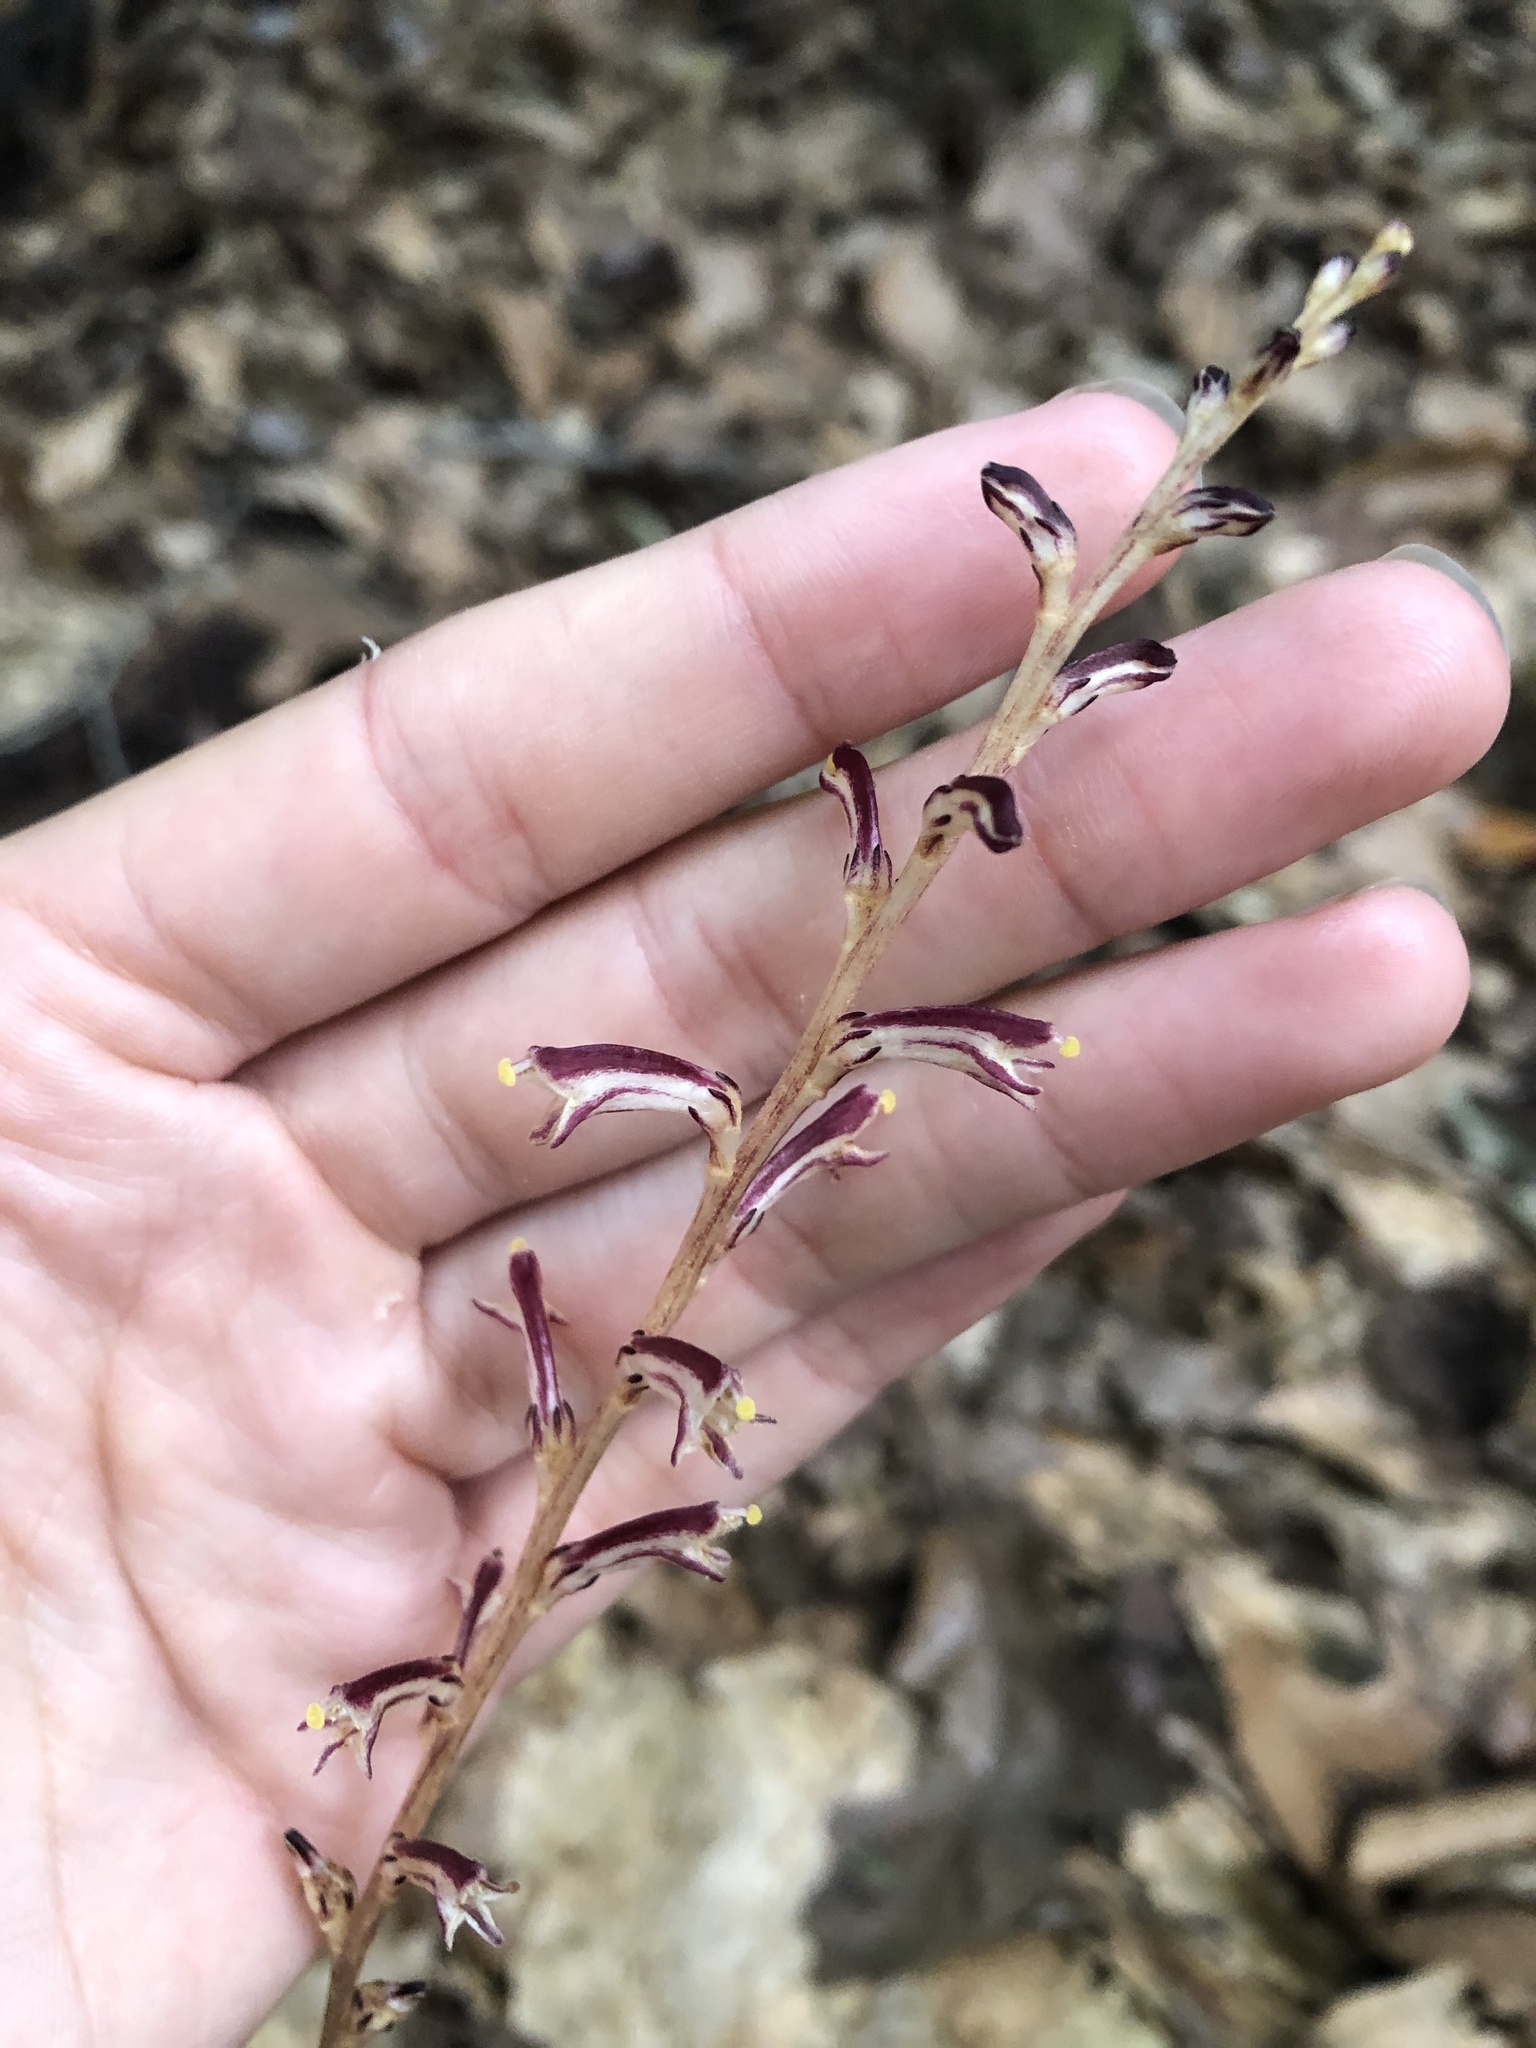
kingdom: Plantae
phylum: Tracheophyta
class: Magnoliopsida
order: Lamiales
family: Orobanchaceae
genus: Epifagus
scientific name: Epifagus virginiana
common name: Beechdrops
